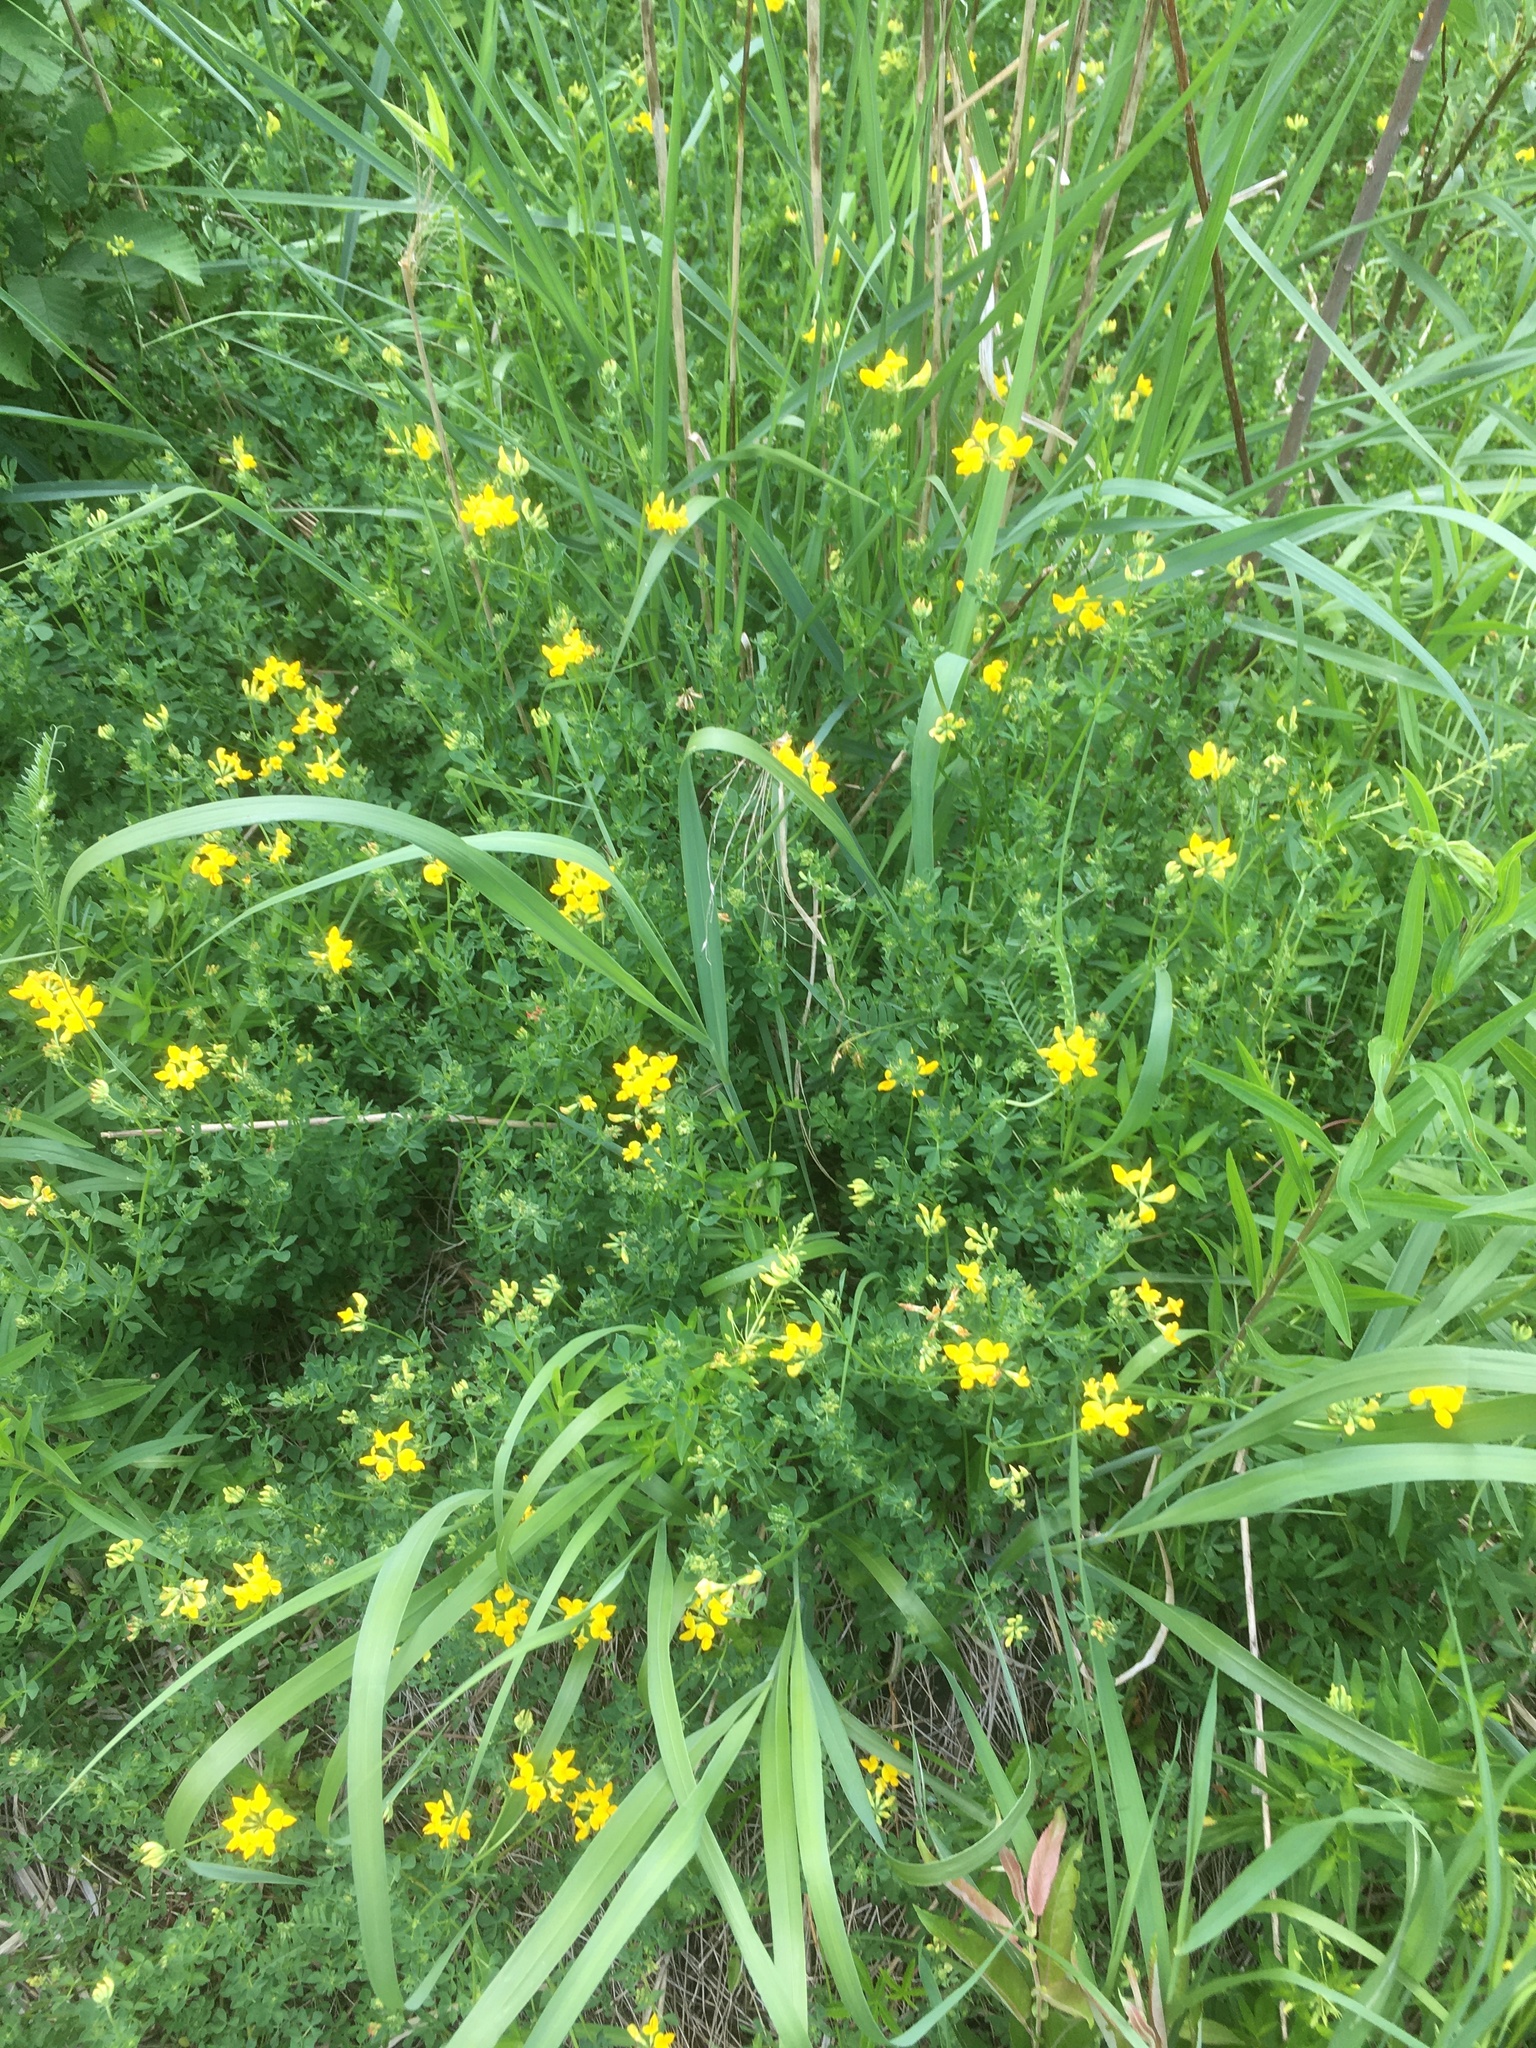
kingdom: Plantae
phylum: Tracheophyta
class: Magnoliopsida
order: Fabales
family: Fabaceae
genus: Lotus
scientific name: Lotus corniculatus
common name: Common bird's-foot-trefoil
